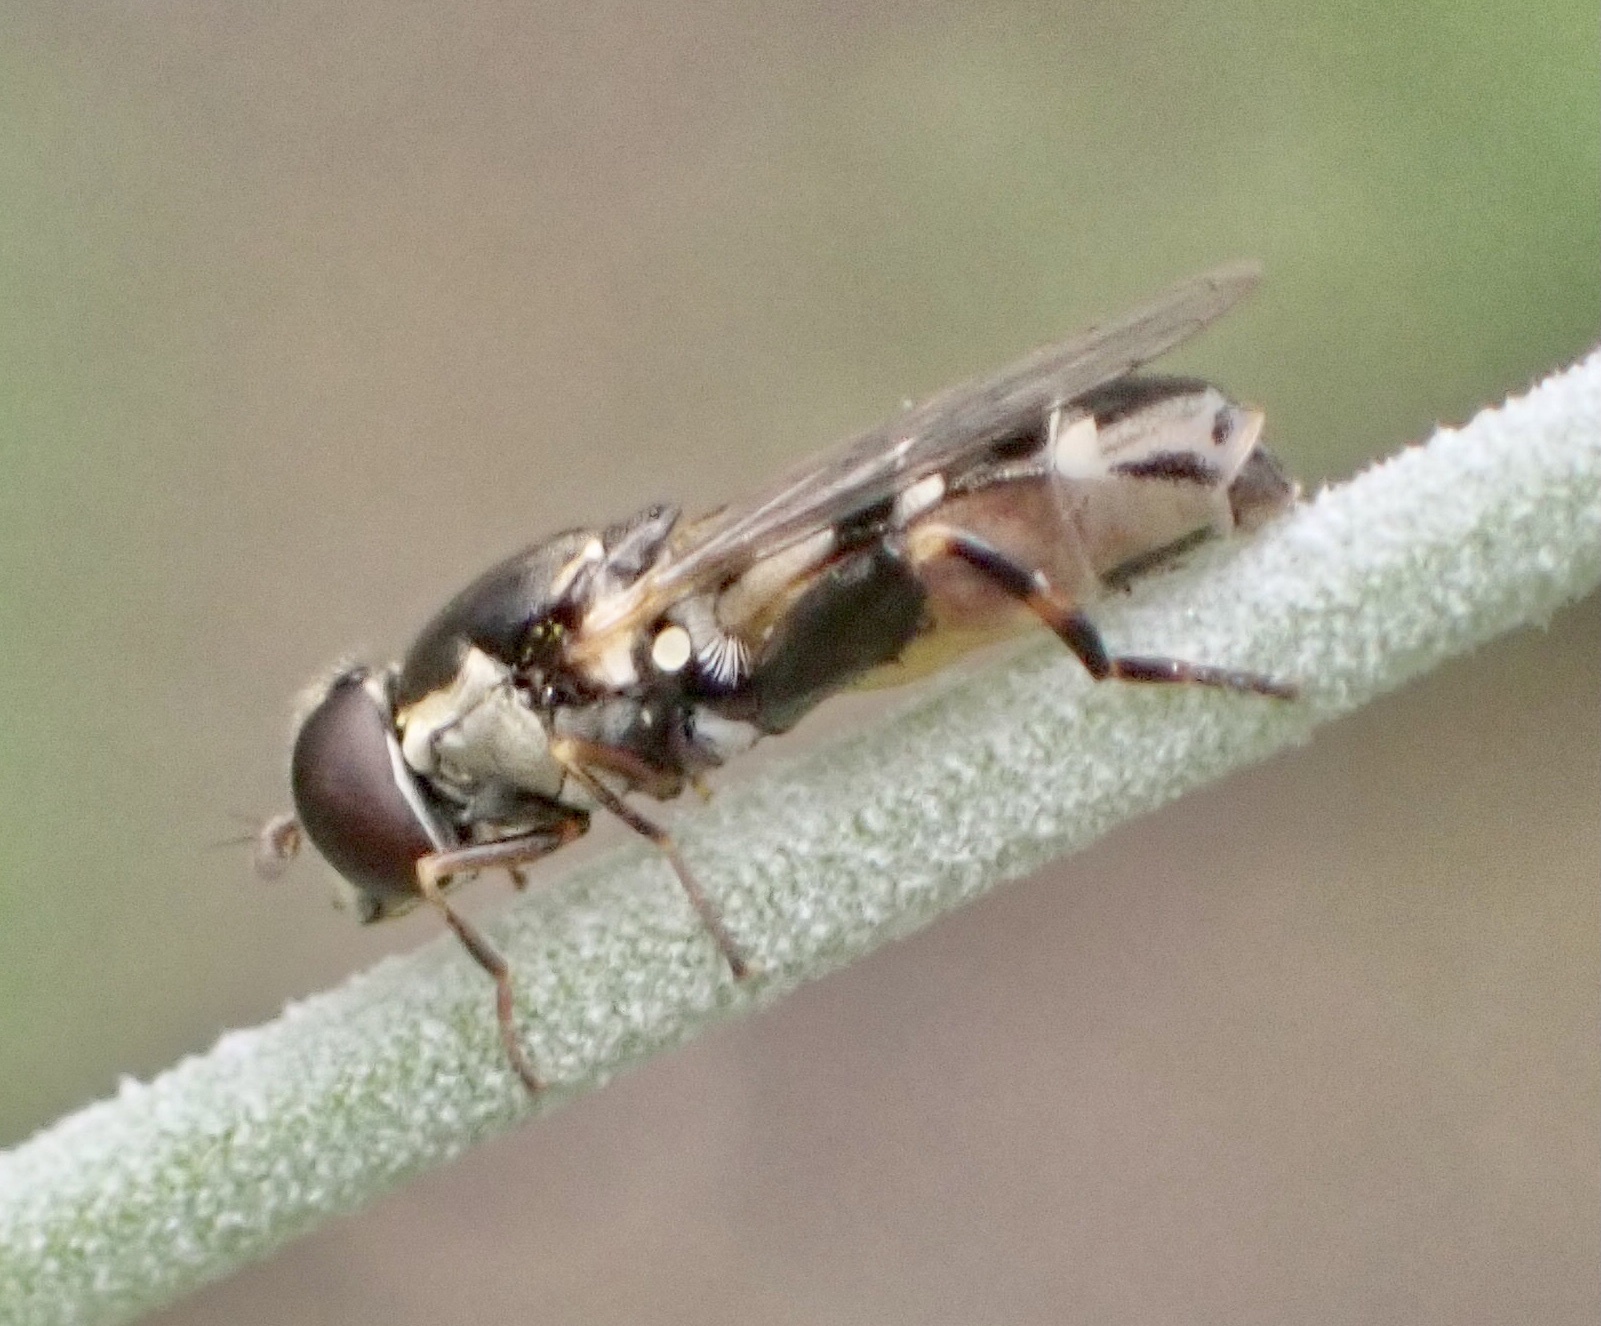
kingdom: Animalia
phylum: Arthropoda
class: Insecta
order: Diptera
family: Syrphidae
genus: Syritta
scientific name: Syritta pipiens
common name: Hover fly
